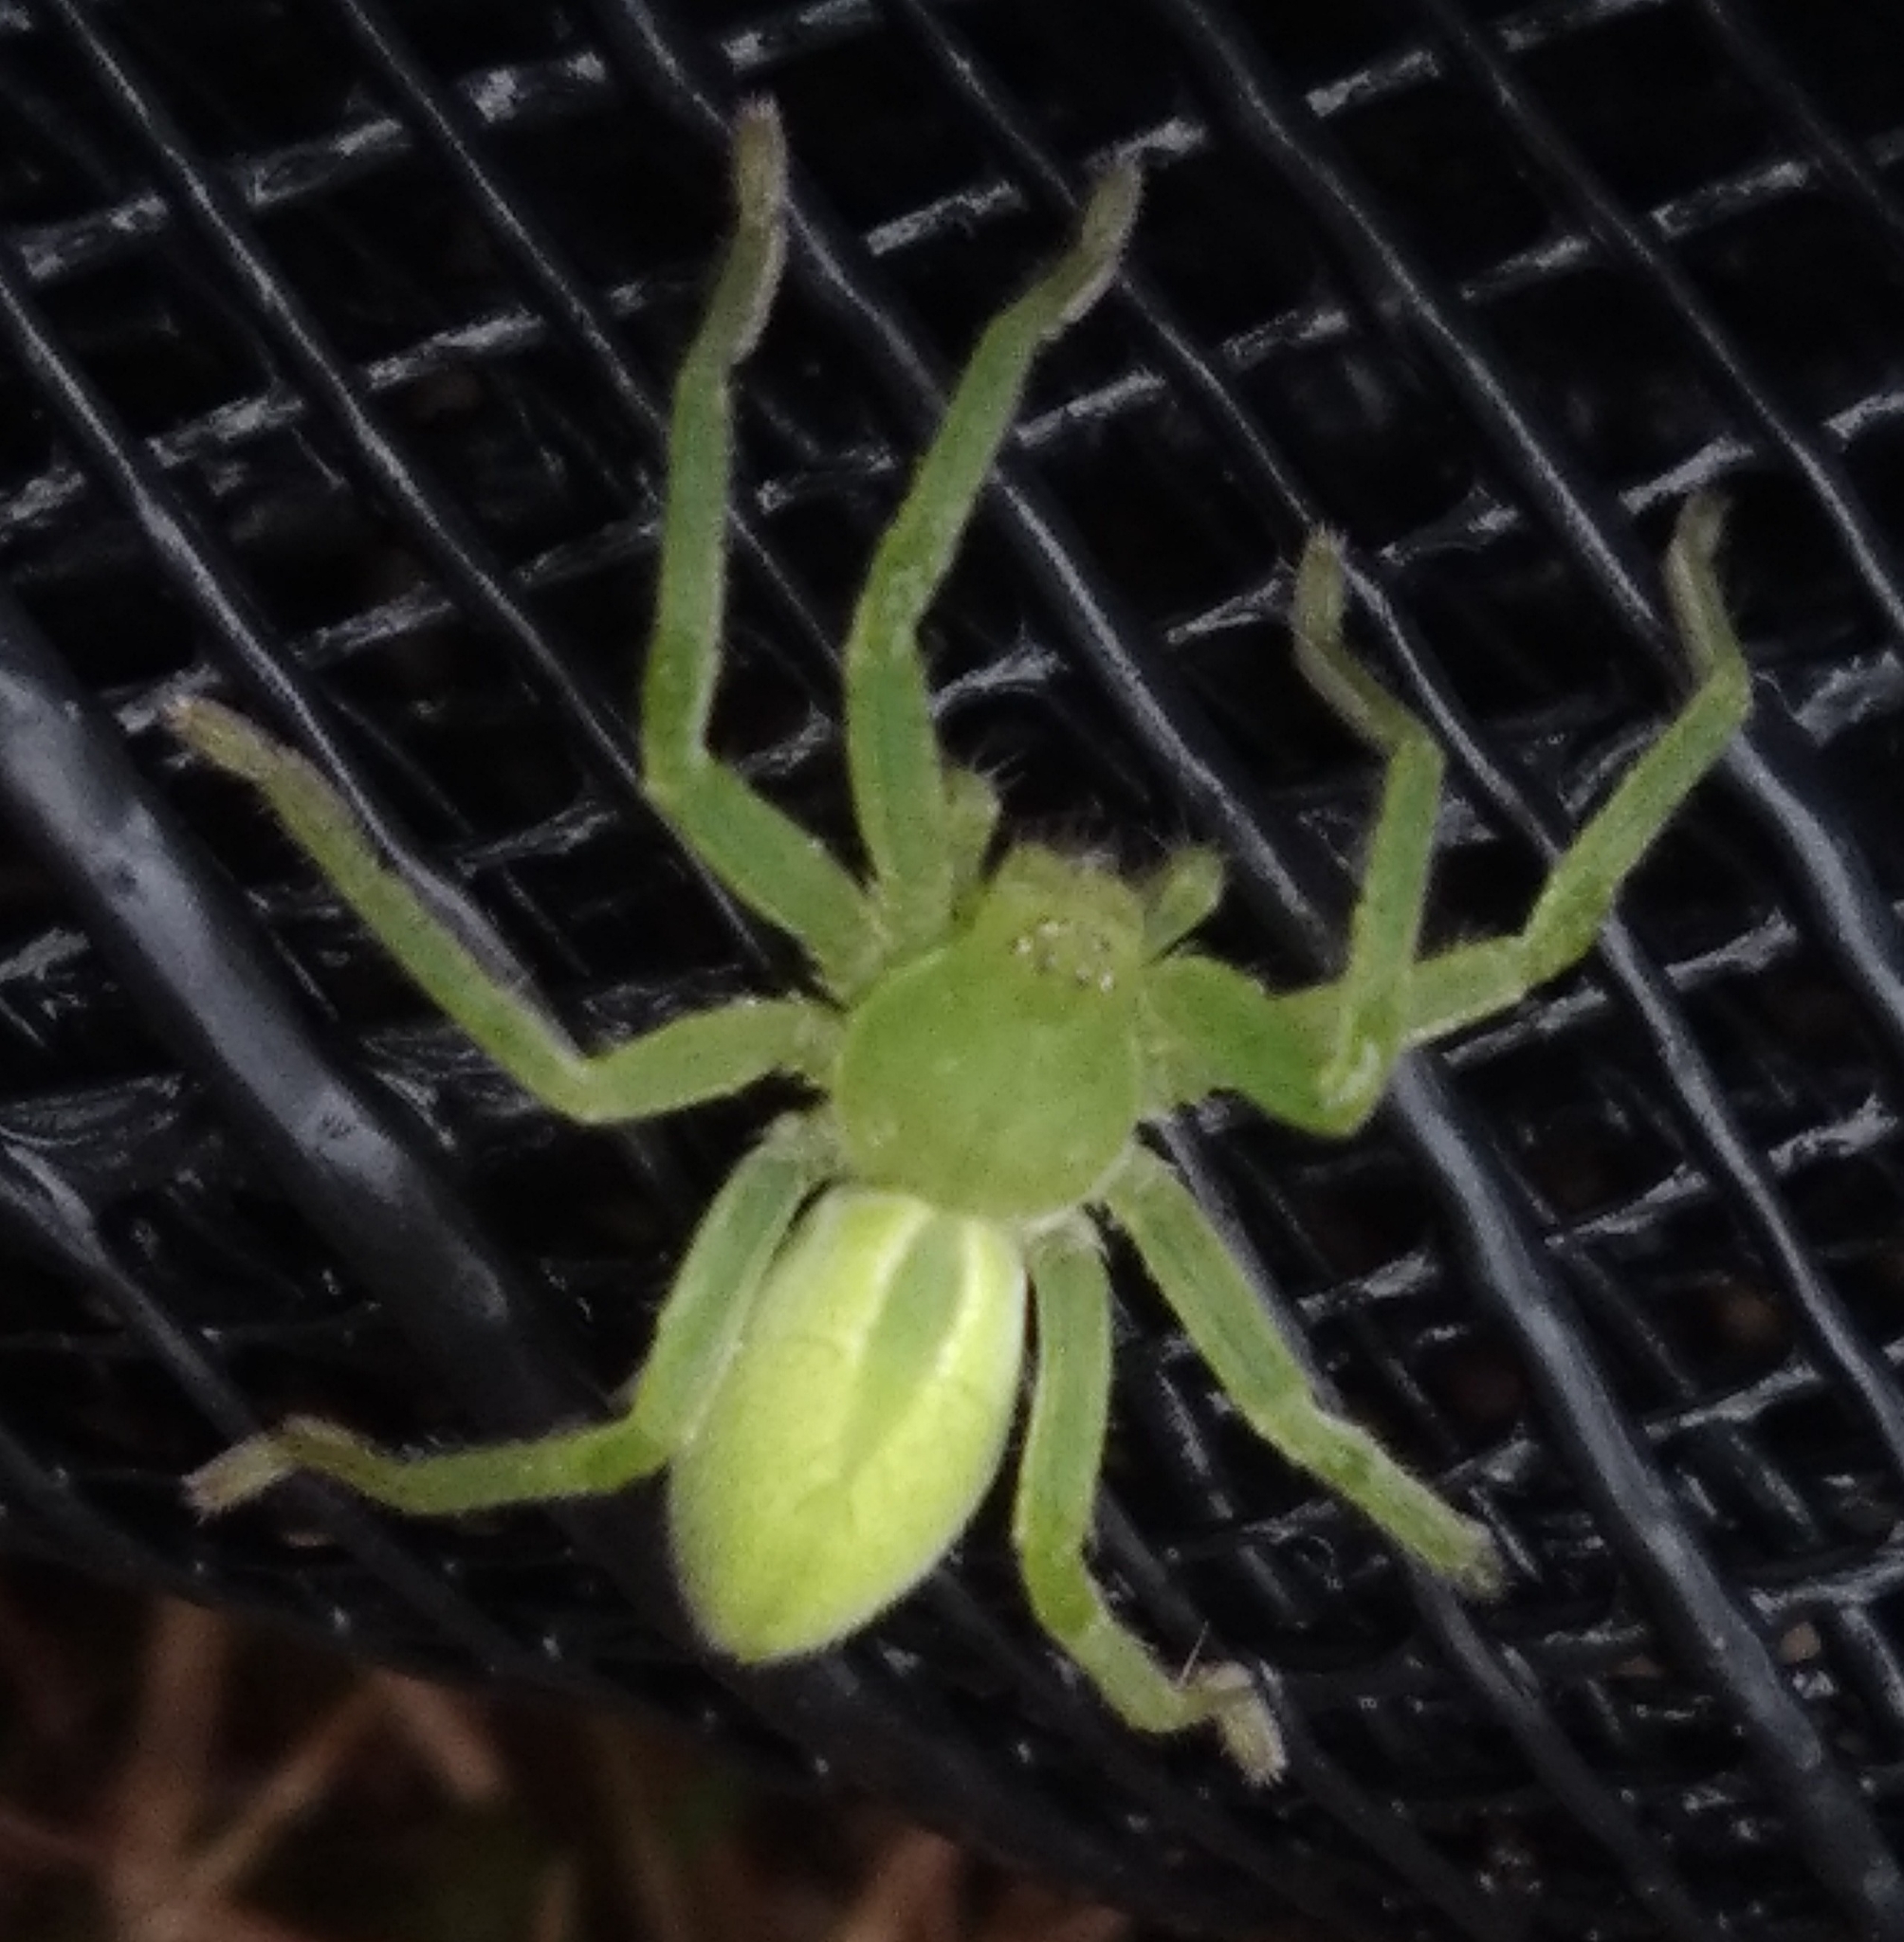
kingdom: Animalia
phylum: Arthropoda
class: Arachnida
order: Araneae
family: Sparassidae
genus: Micrommata
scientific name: Micrommata virescens
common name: Green spider
